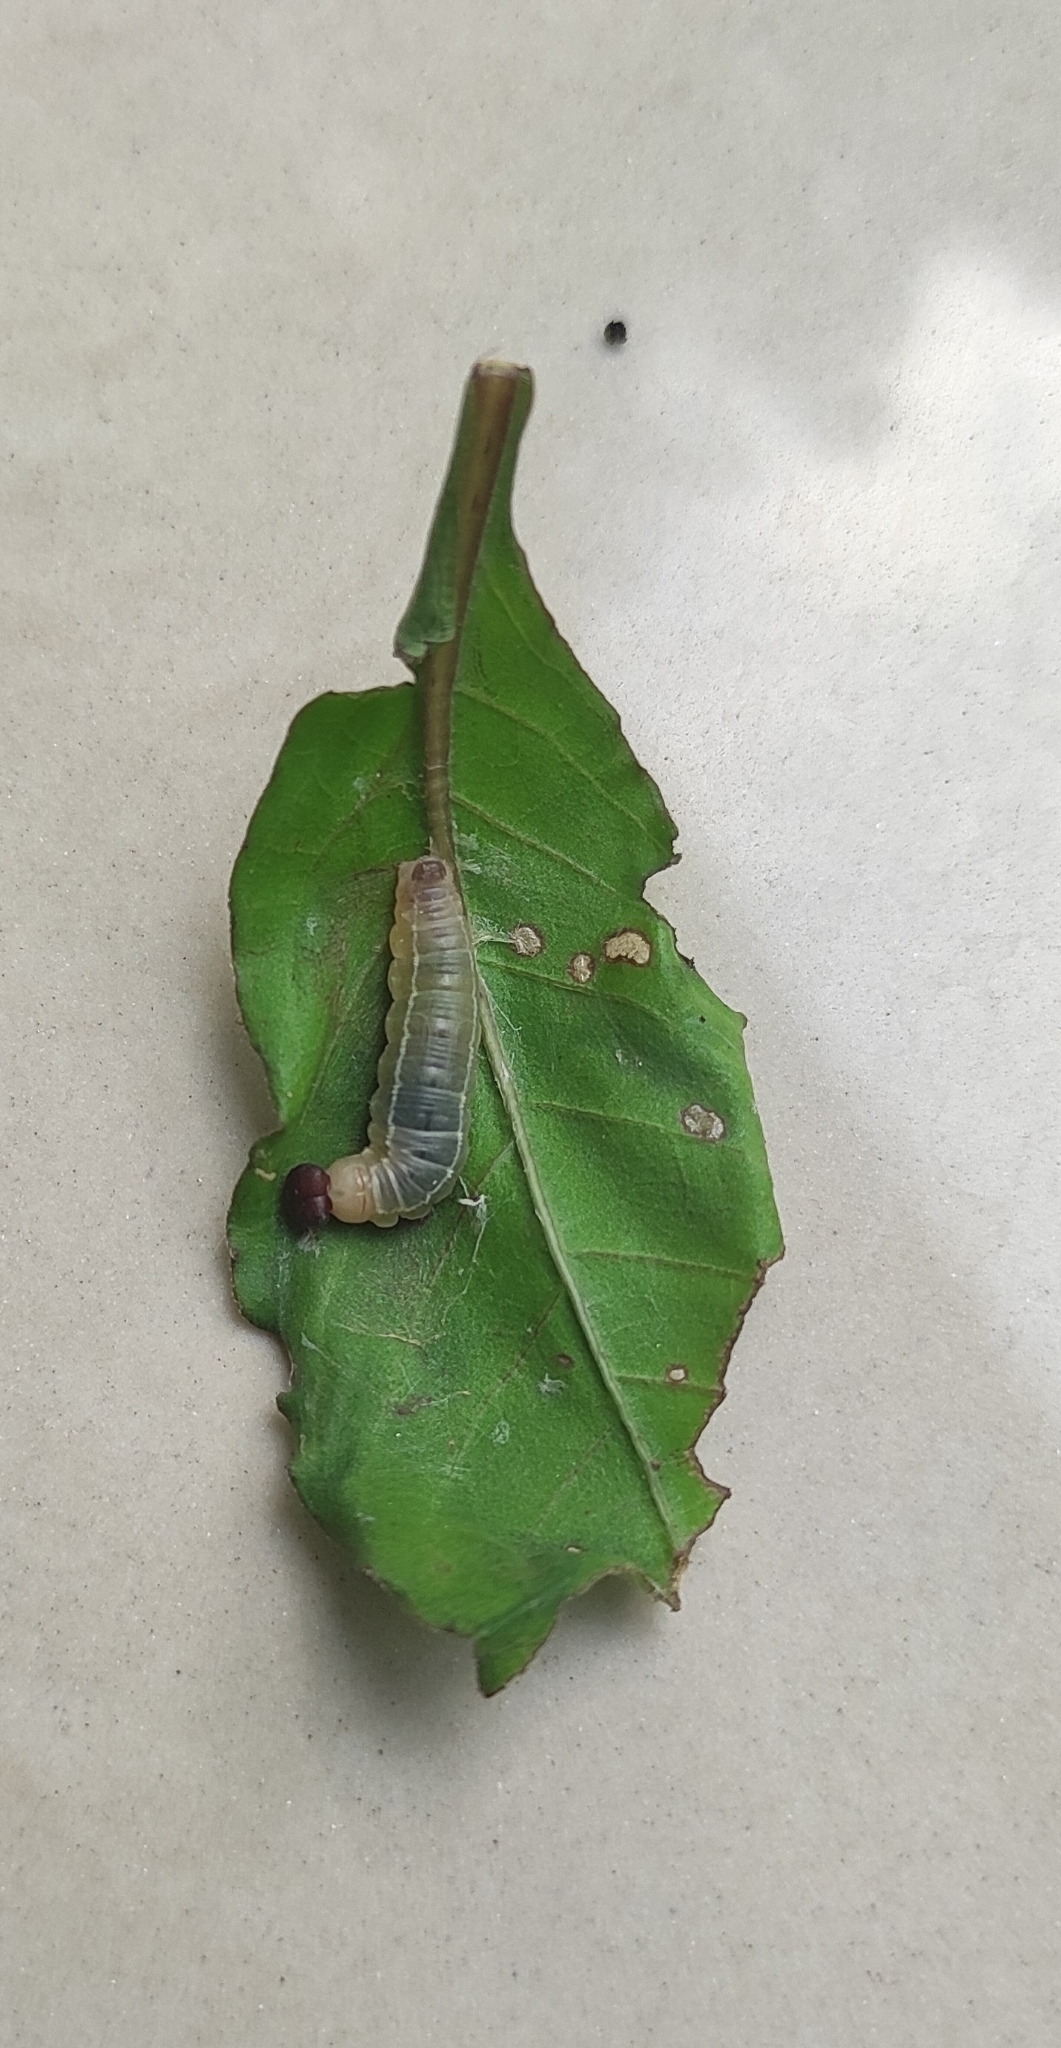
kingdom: Animalia
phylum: Arthropoda
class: Insecta
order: Lepidoptera
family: Hesperiidae
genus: Celaenorrhinus
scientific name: Celaenorrhinus leucocera
